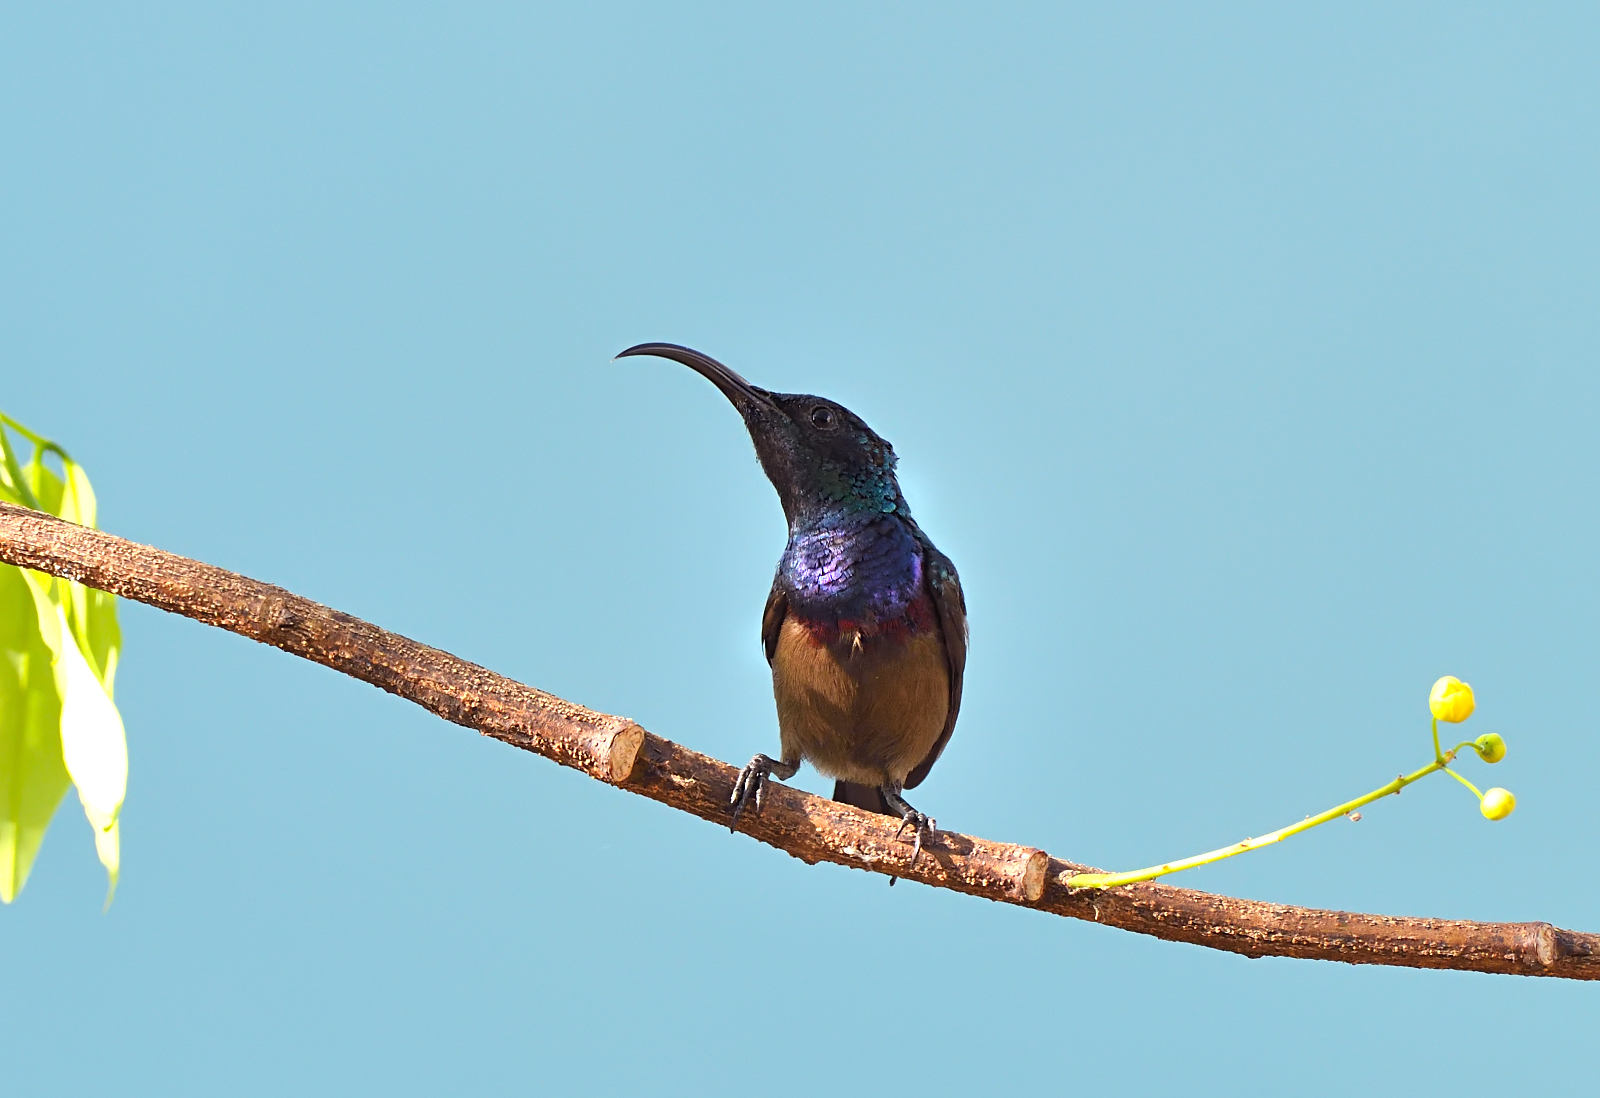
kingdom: Animalia
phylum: Chordata
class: Aves
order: Passeriformes
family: Nectariniidae
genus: Cinnyris
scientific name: Cinnyris lotenius
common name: Loten's sunbird
